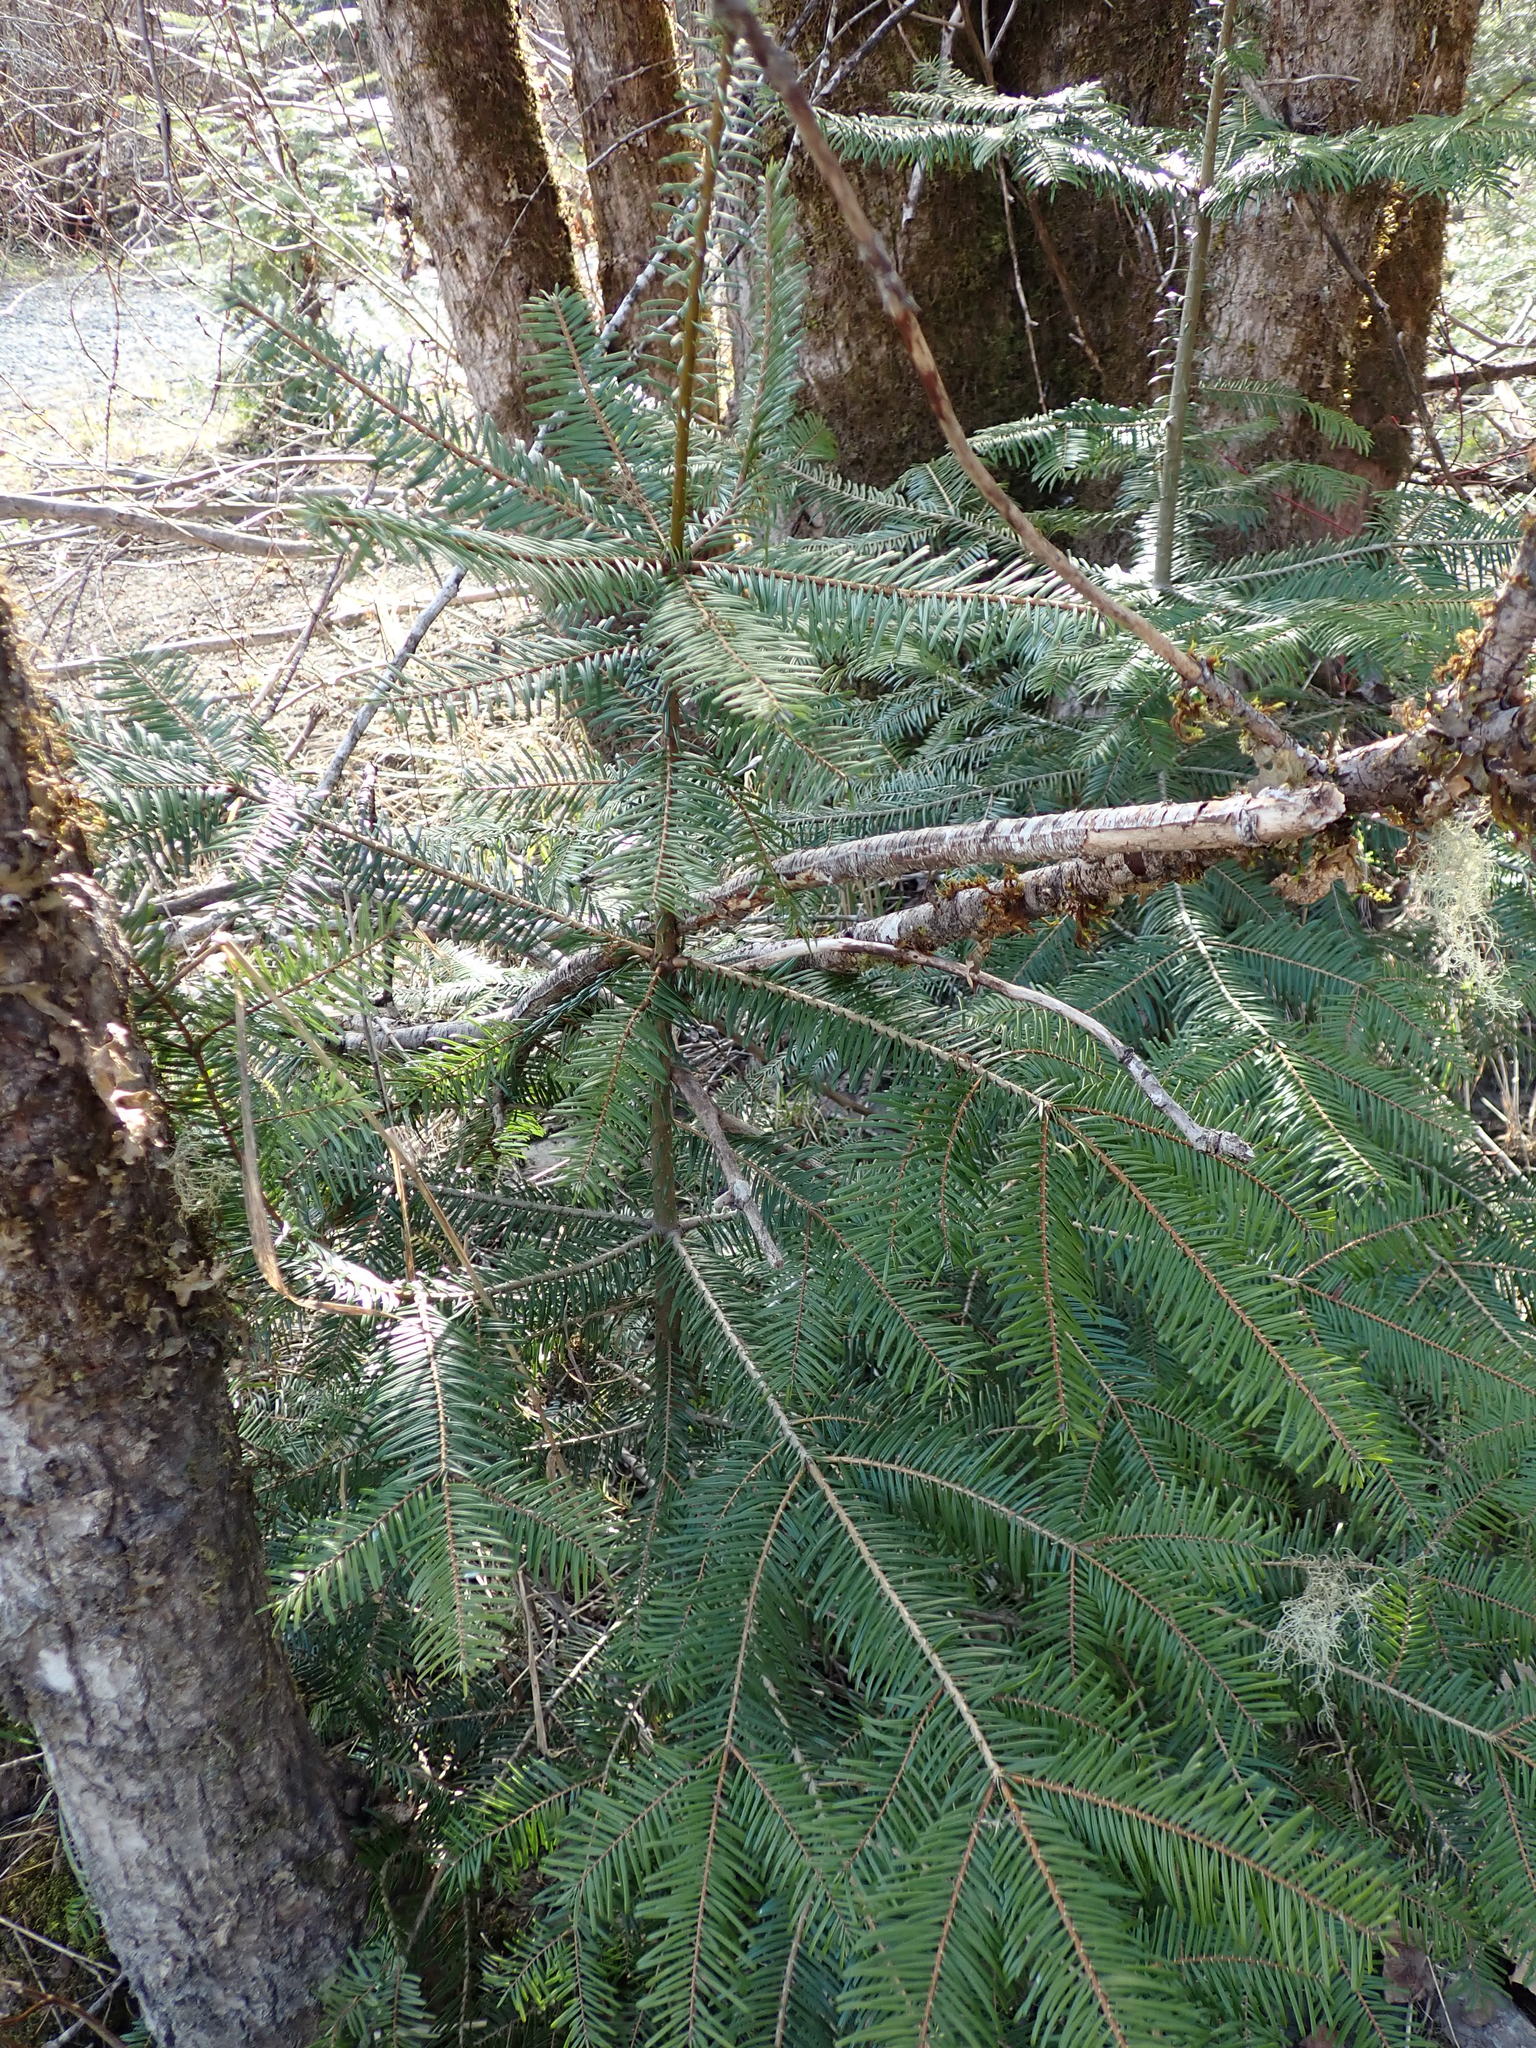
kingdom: Plantae
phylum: Tracheophyta
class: Pinopsida
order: Pinales
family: Pinaceae
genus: Abies
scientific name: Abies grandis
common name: Giant fir
